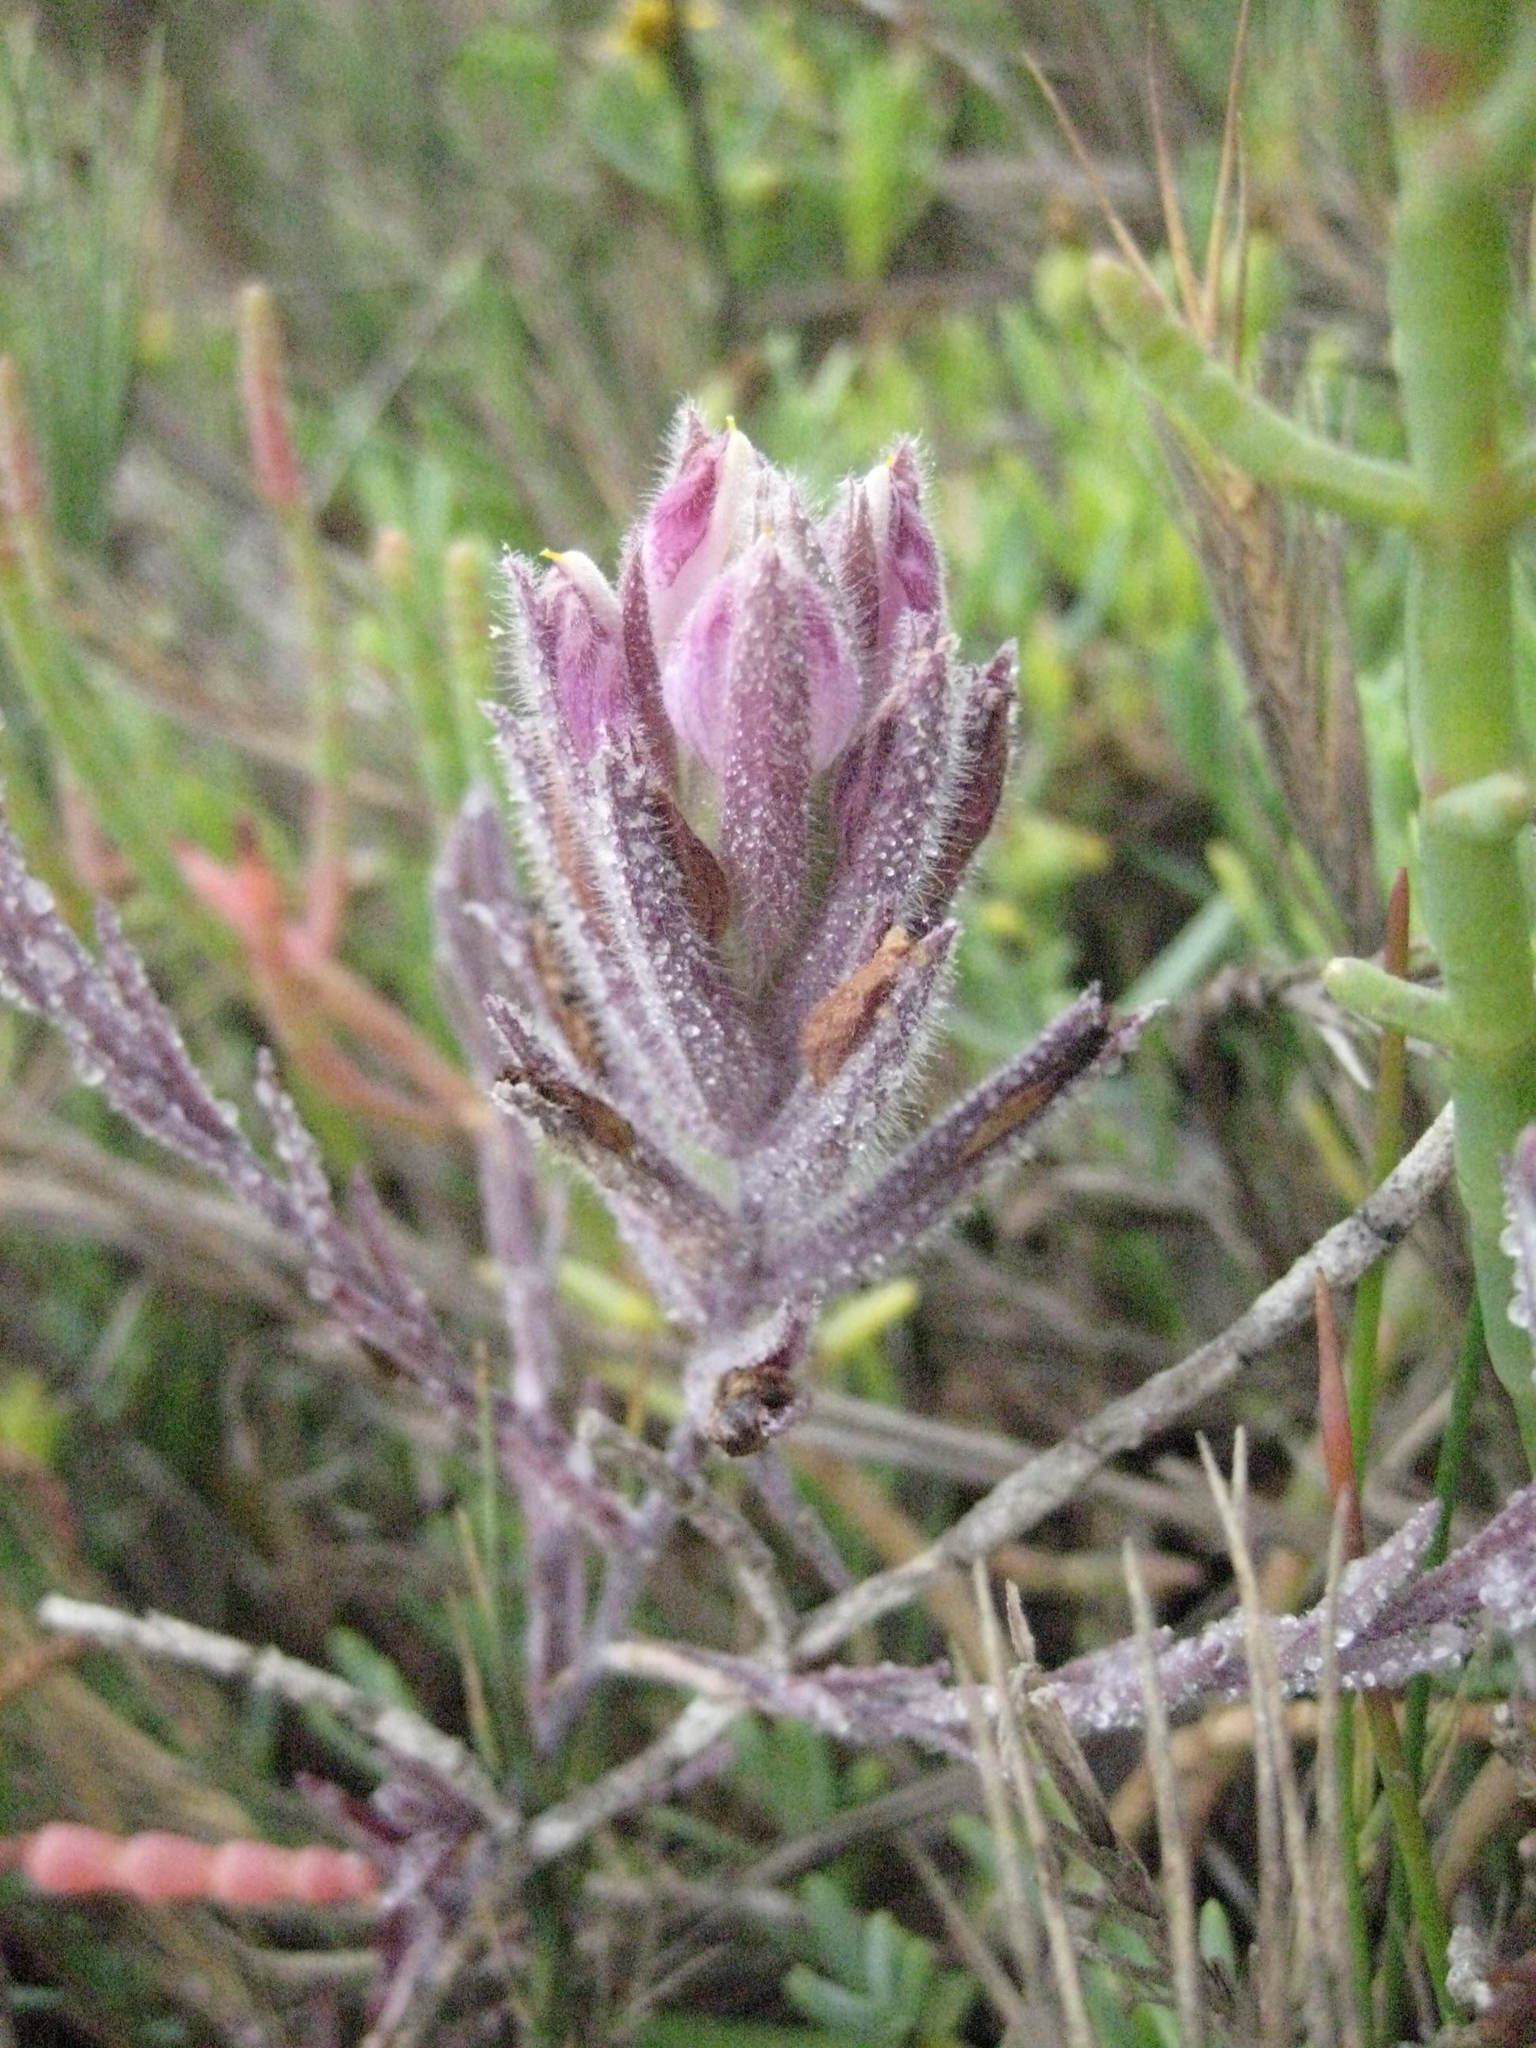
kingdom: Plantae
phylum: Tracheophyta
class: Magnoliopsida
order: Lamiales
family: Orobanchaceae
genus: Chloropyron
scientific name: Chloropyron maritimum
